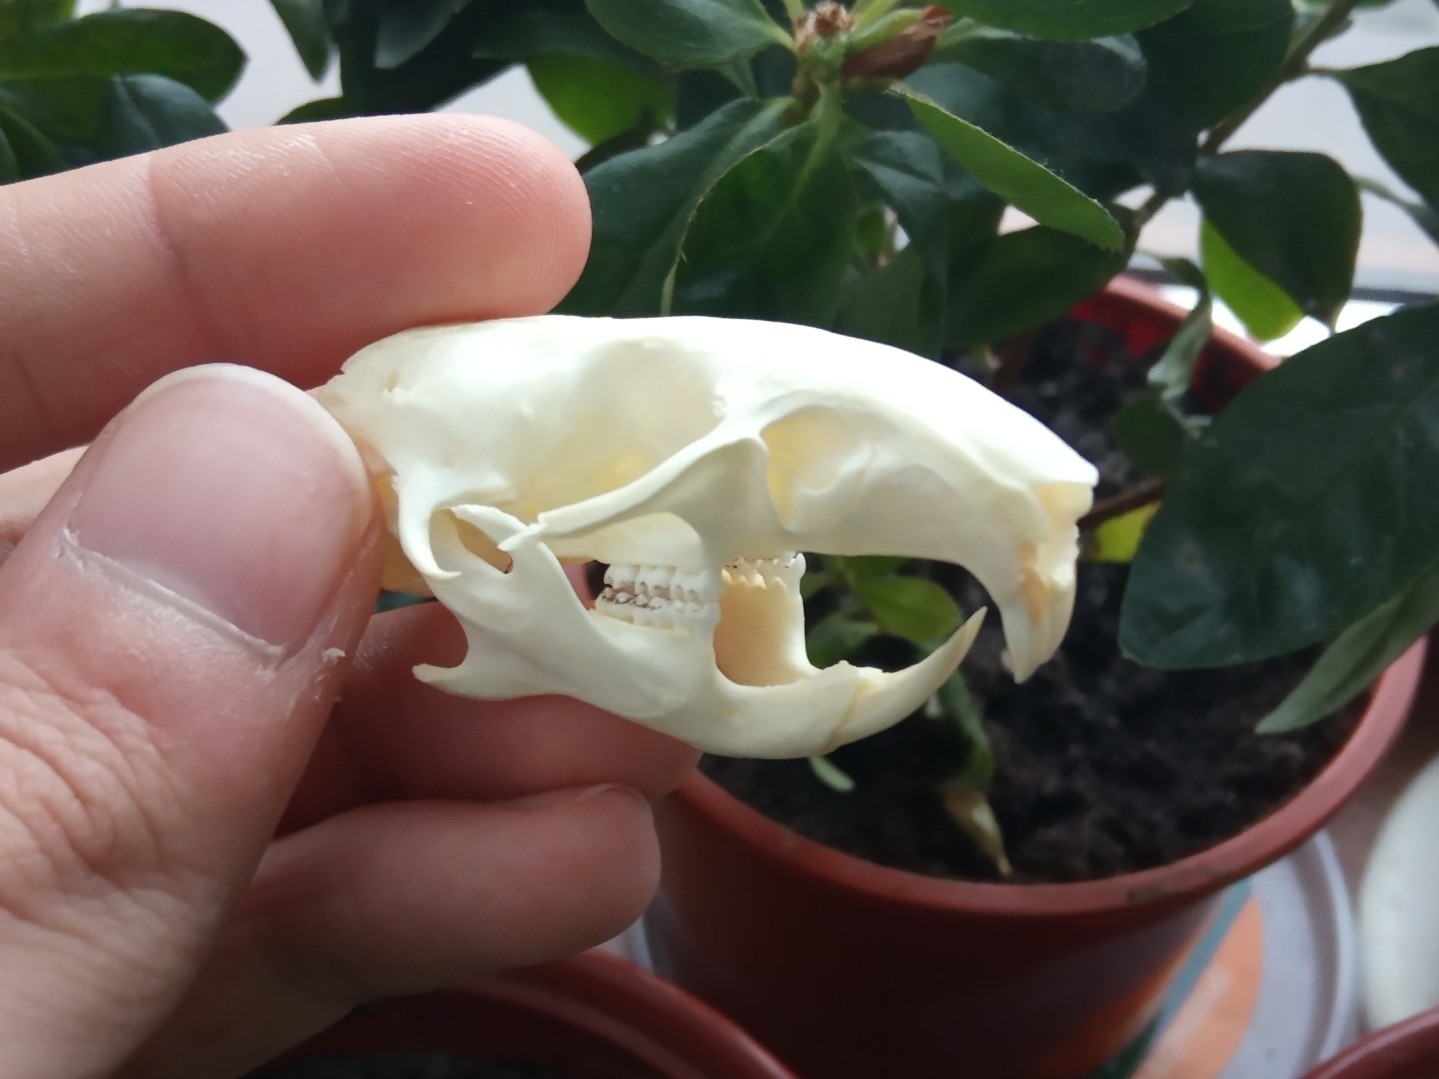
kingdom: Animalia
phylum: Chordata
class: Mammalia
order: Rodentia
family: Cricetidae
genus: Cricetus
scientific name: Cricetus cricetus
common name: Common hamster
